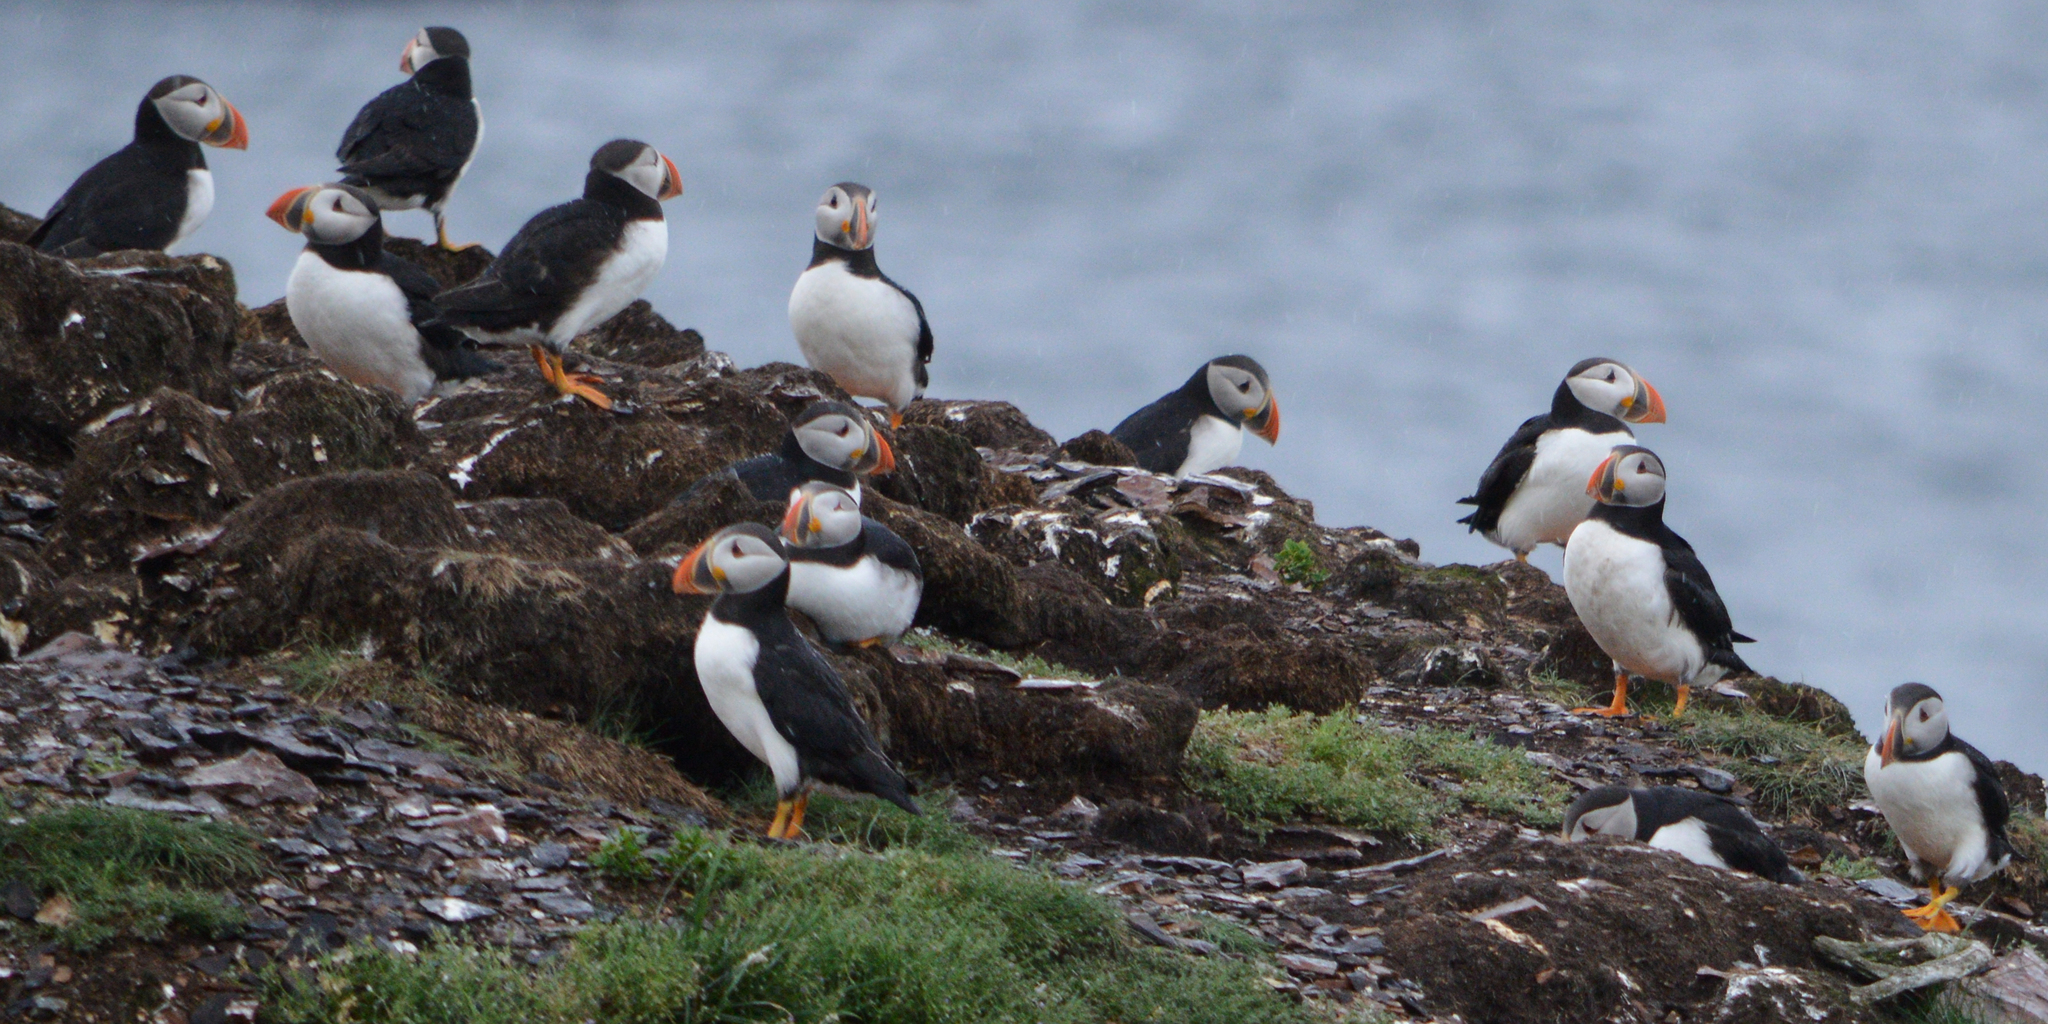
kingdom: Animalia
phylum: Chordata
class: Aves
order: Charadriiformes
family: Alcidae
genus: Fratercula
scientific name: Fratercula arctica
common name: Atlantic puffin
